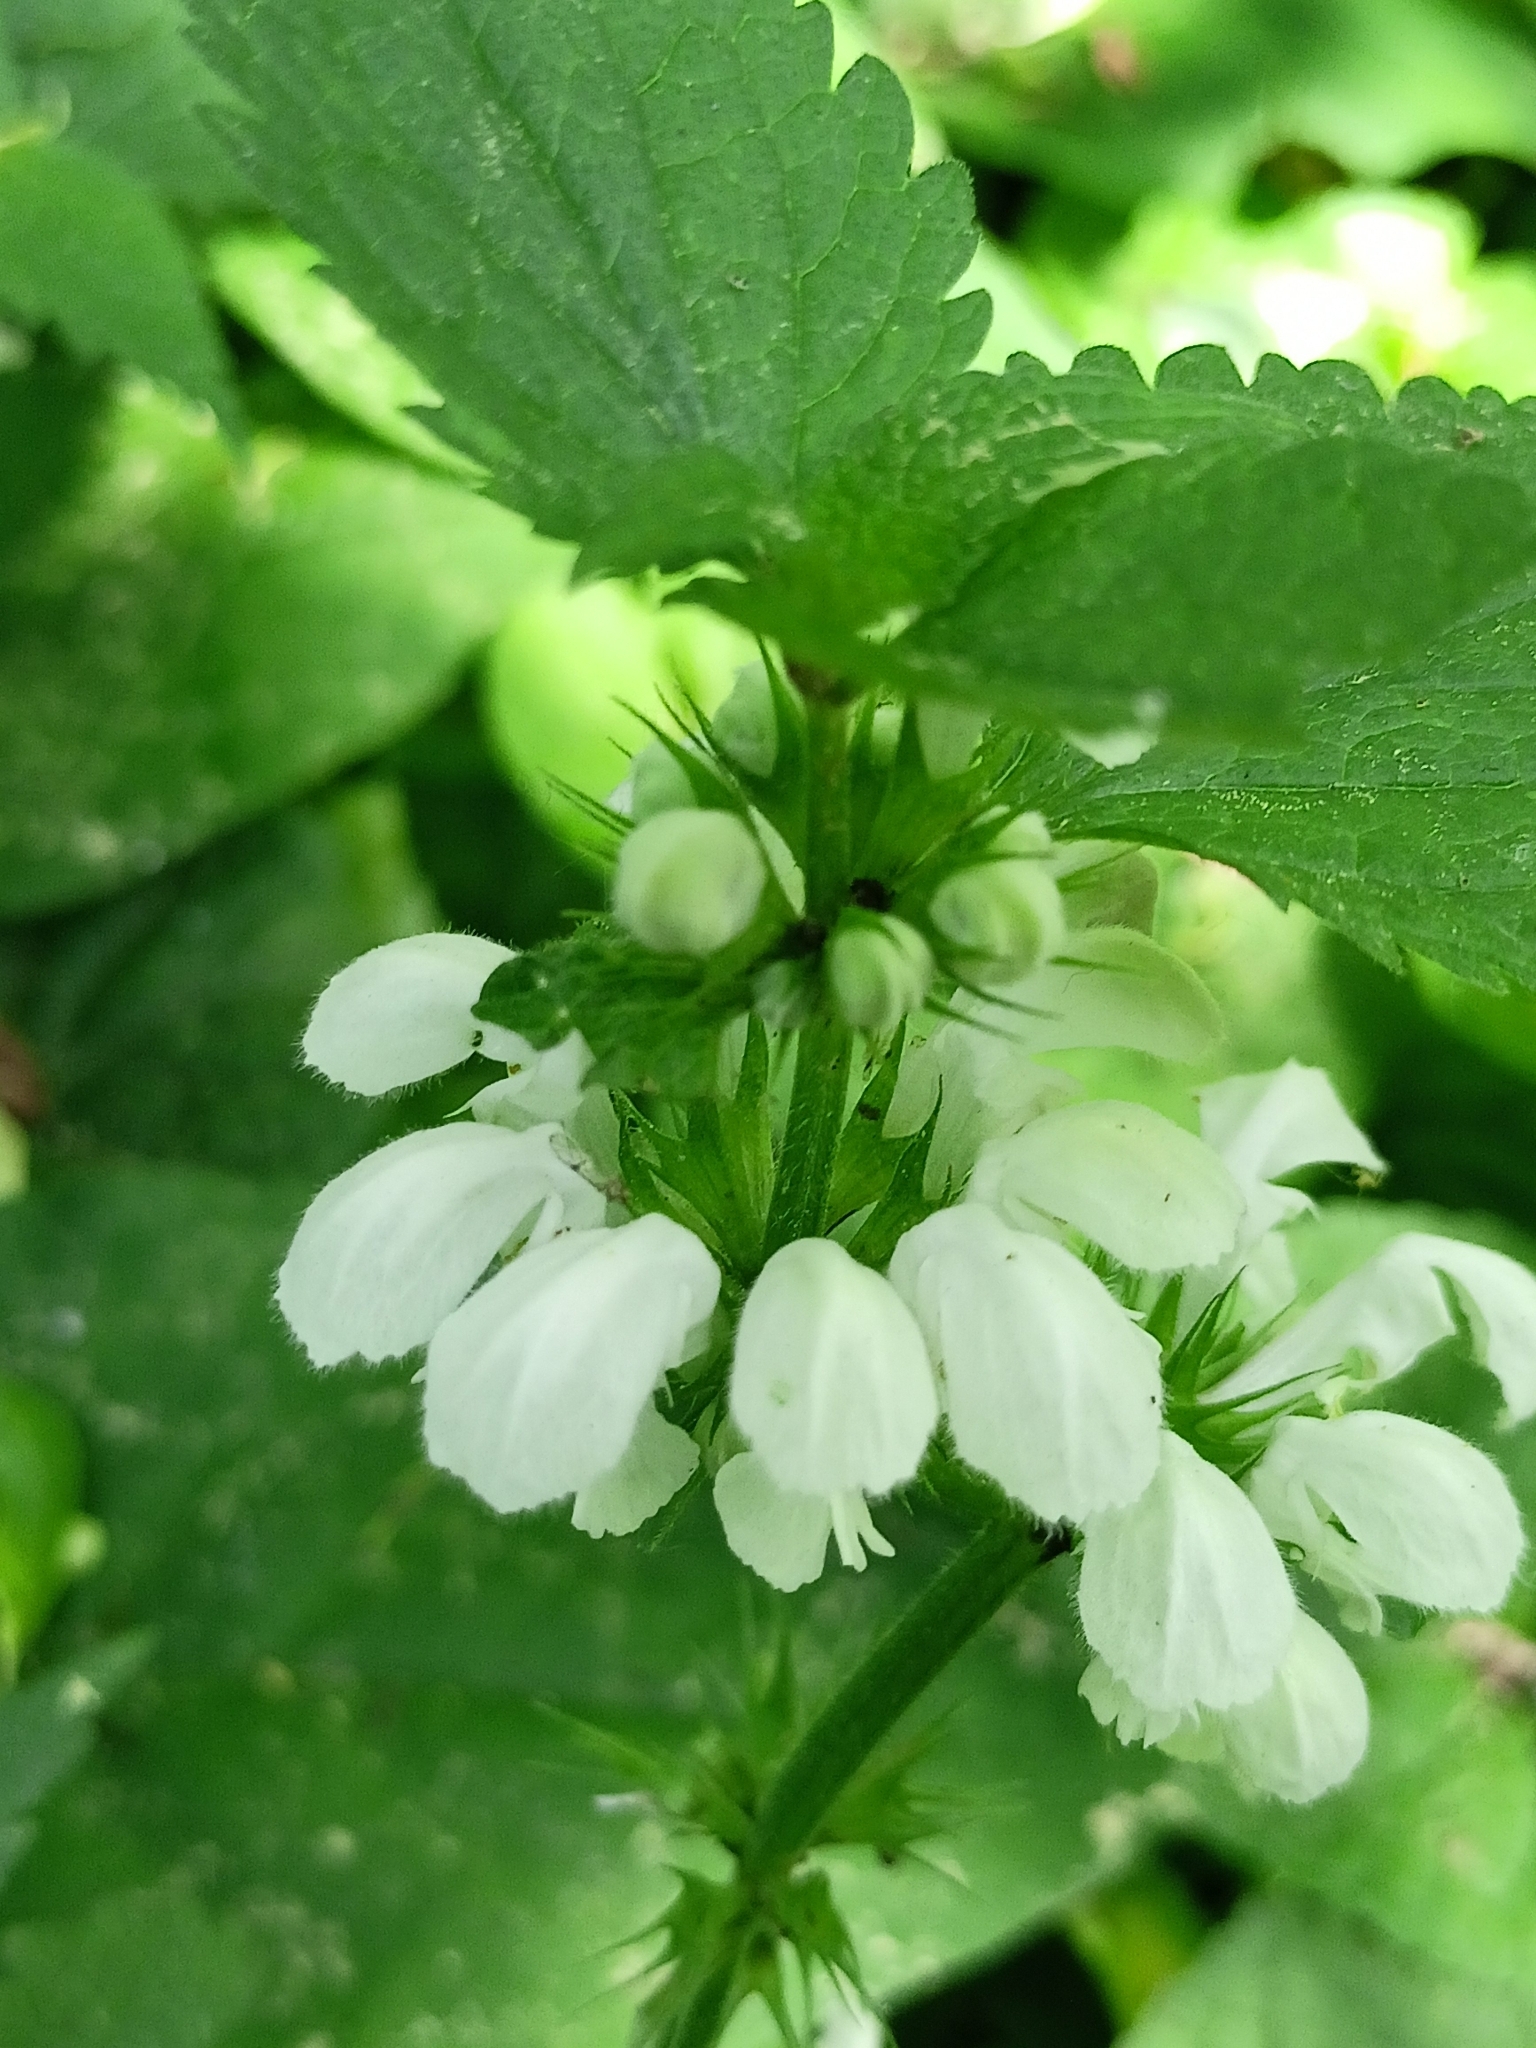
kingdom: Plantae
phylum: Tracheophyta
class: Magnoliopsida
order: Lamiales
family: Lamiaceae
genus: Lamium
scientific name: Lamium album
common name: White dead-nettle
